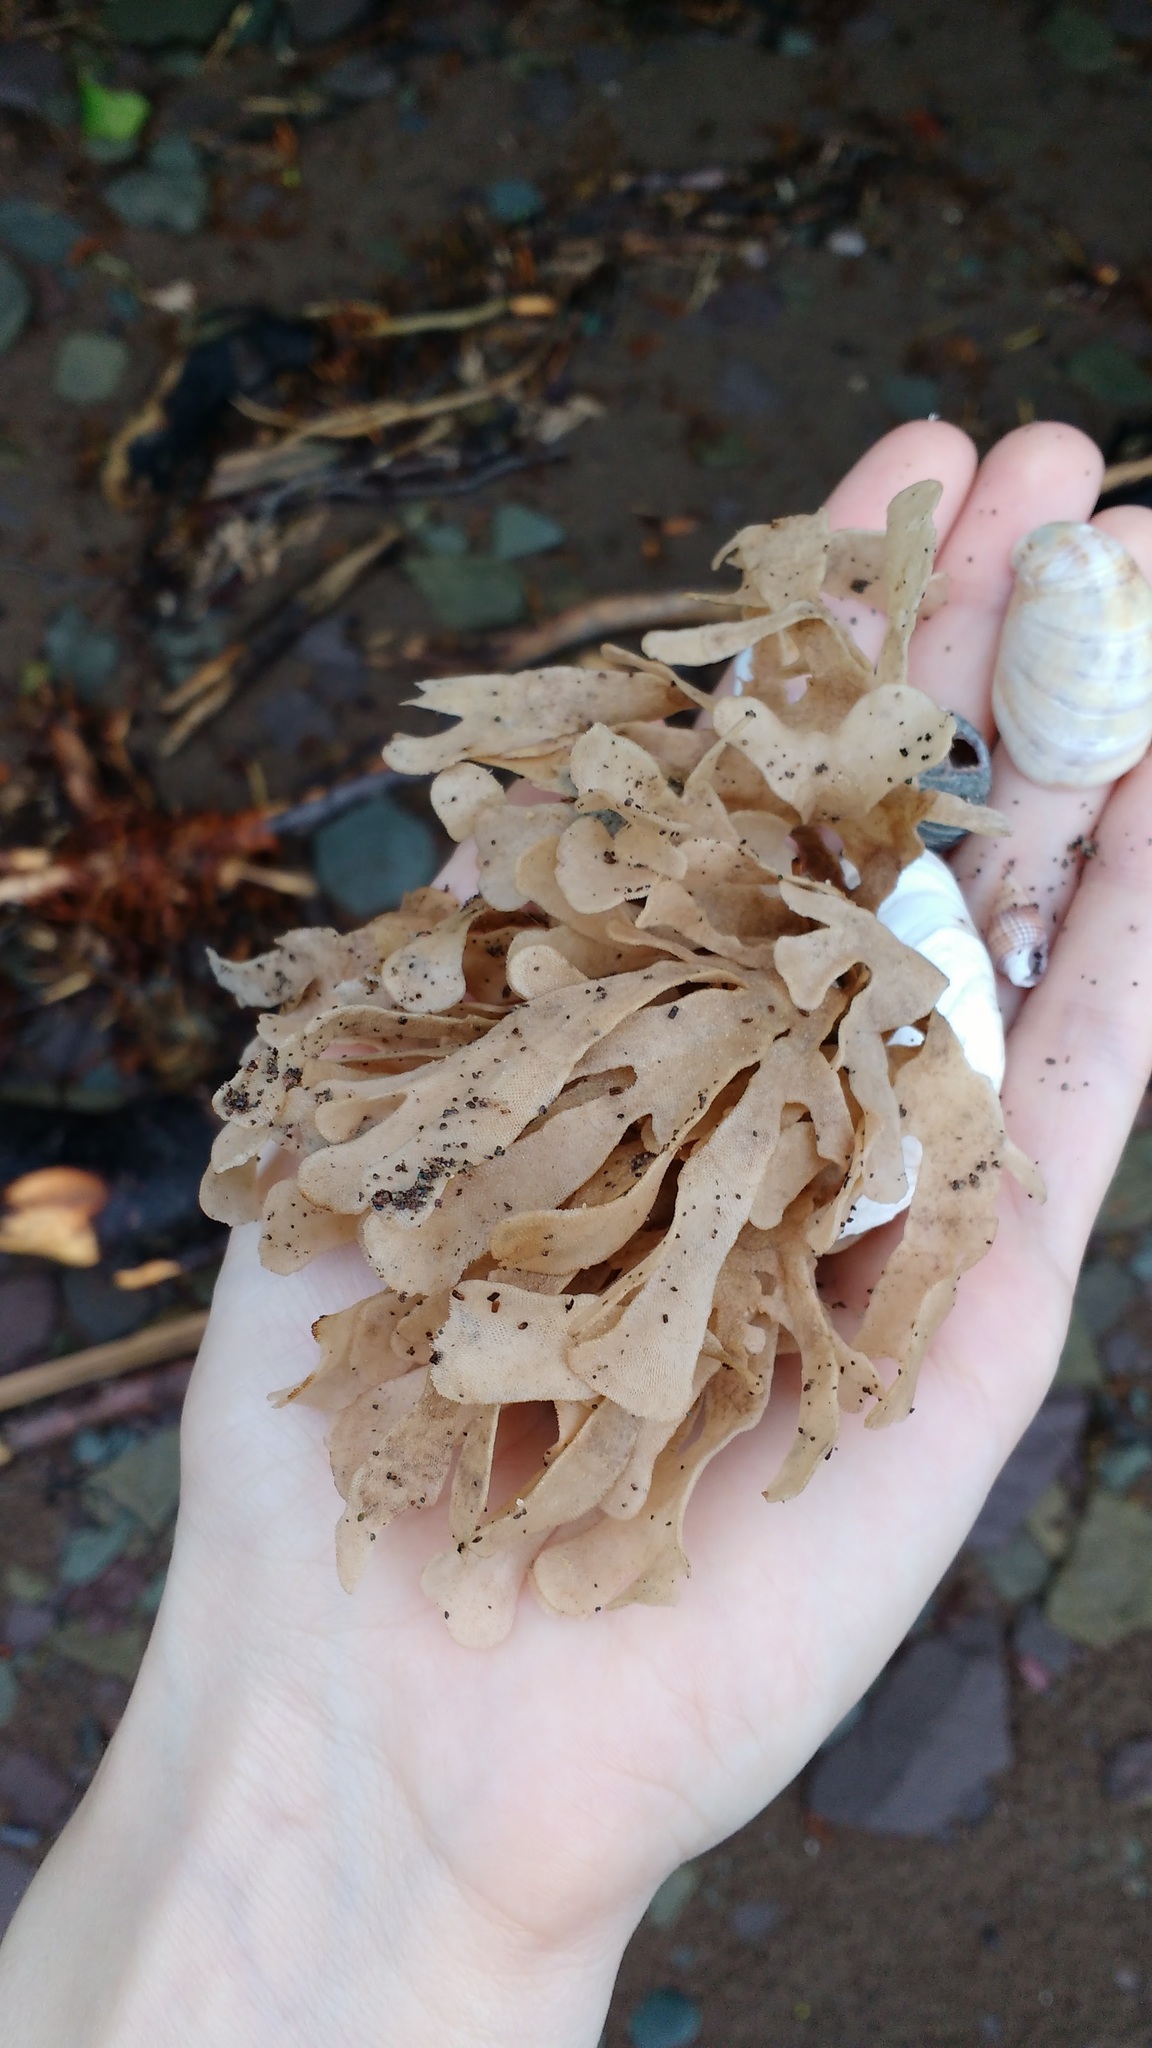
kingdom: Animalia
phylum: Bryozoa
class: Gymnolaemata
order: Cheilostomatida
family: Flustridae
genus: Flustra
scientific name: Flustra foliacea
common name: Hornwrack
